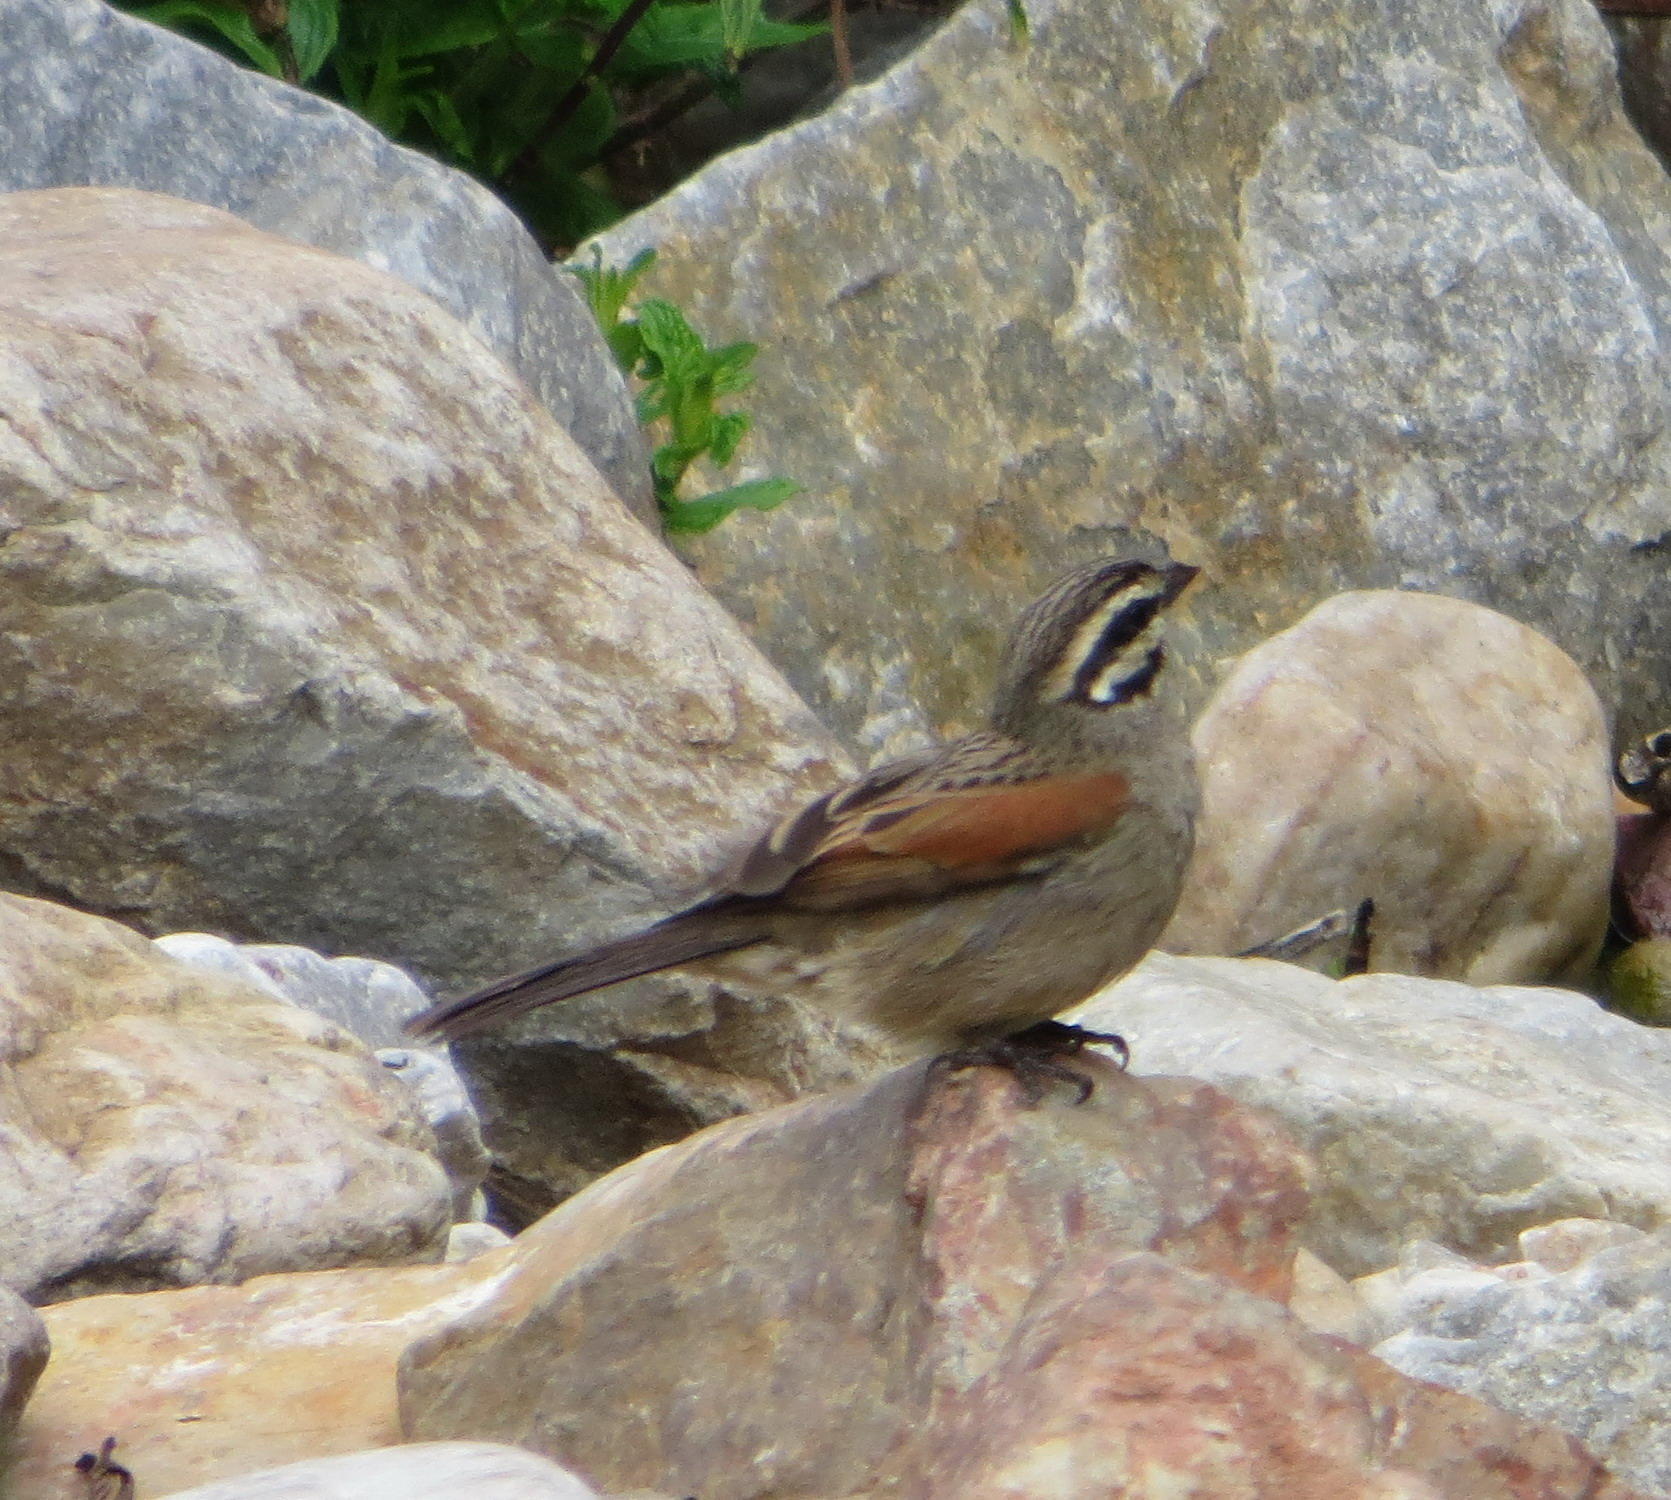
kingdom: Animalia
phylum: Chordata
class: Aves
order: Passeriformes
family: Emberizidae
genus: Emberiza
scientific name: Emberiza capensis
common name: Cape bunting
